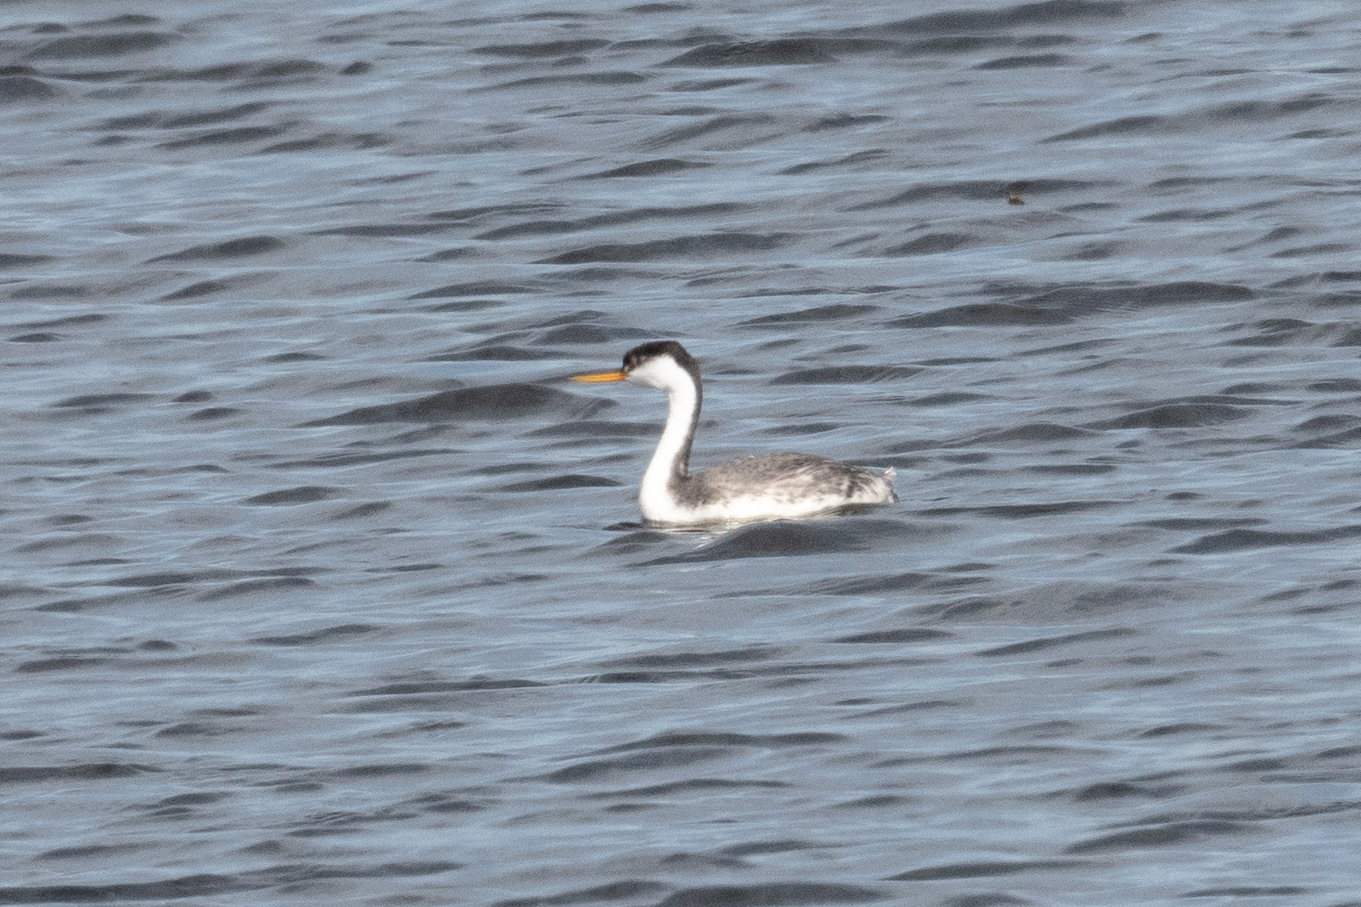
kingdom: Animalia
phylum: Chordata
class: Aves
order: Podicipediformes
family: Podicipedidae
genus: Aechmophorus
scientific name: Aechmophorus
